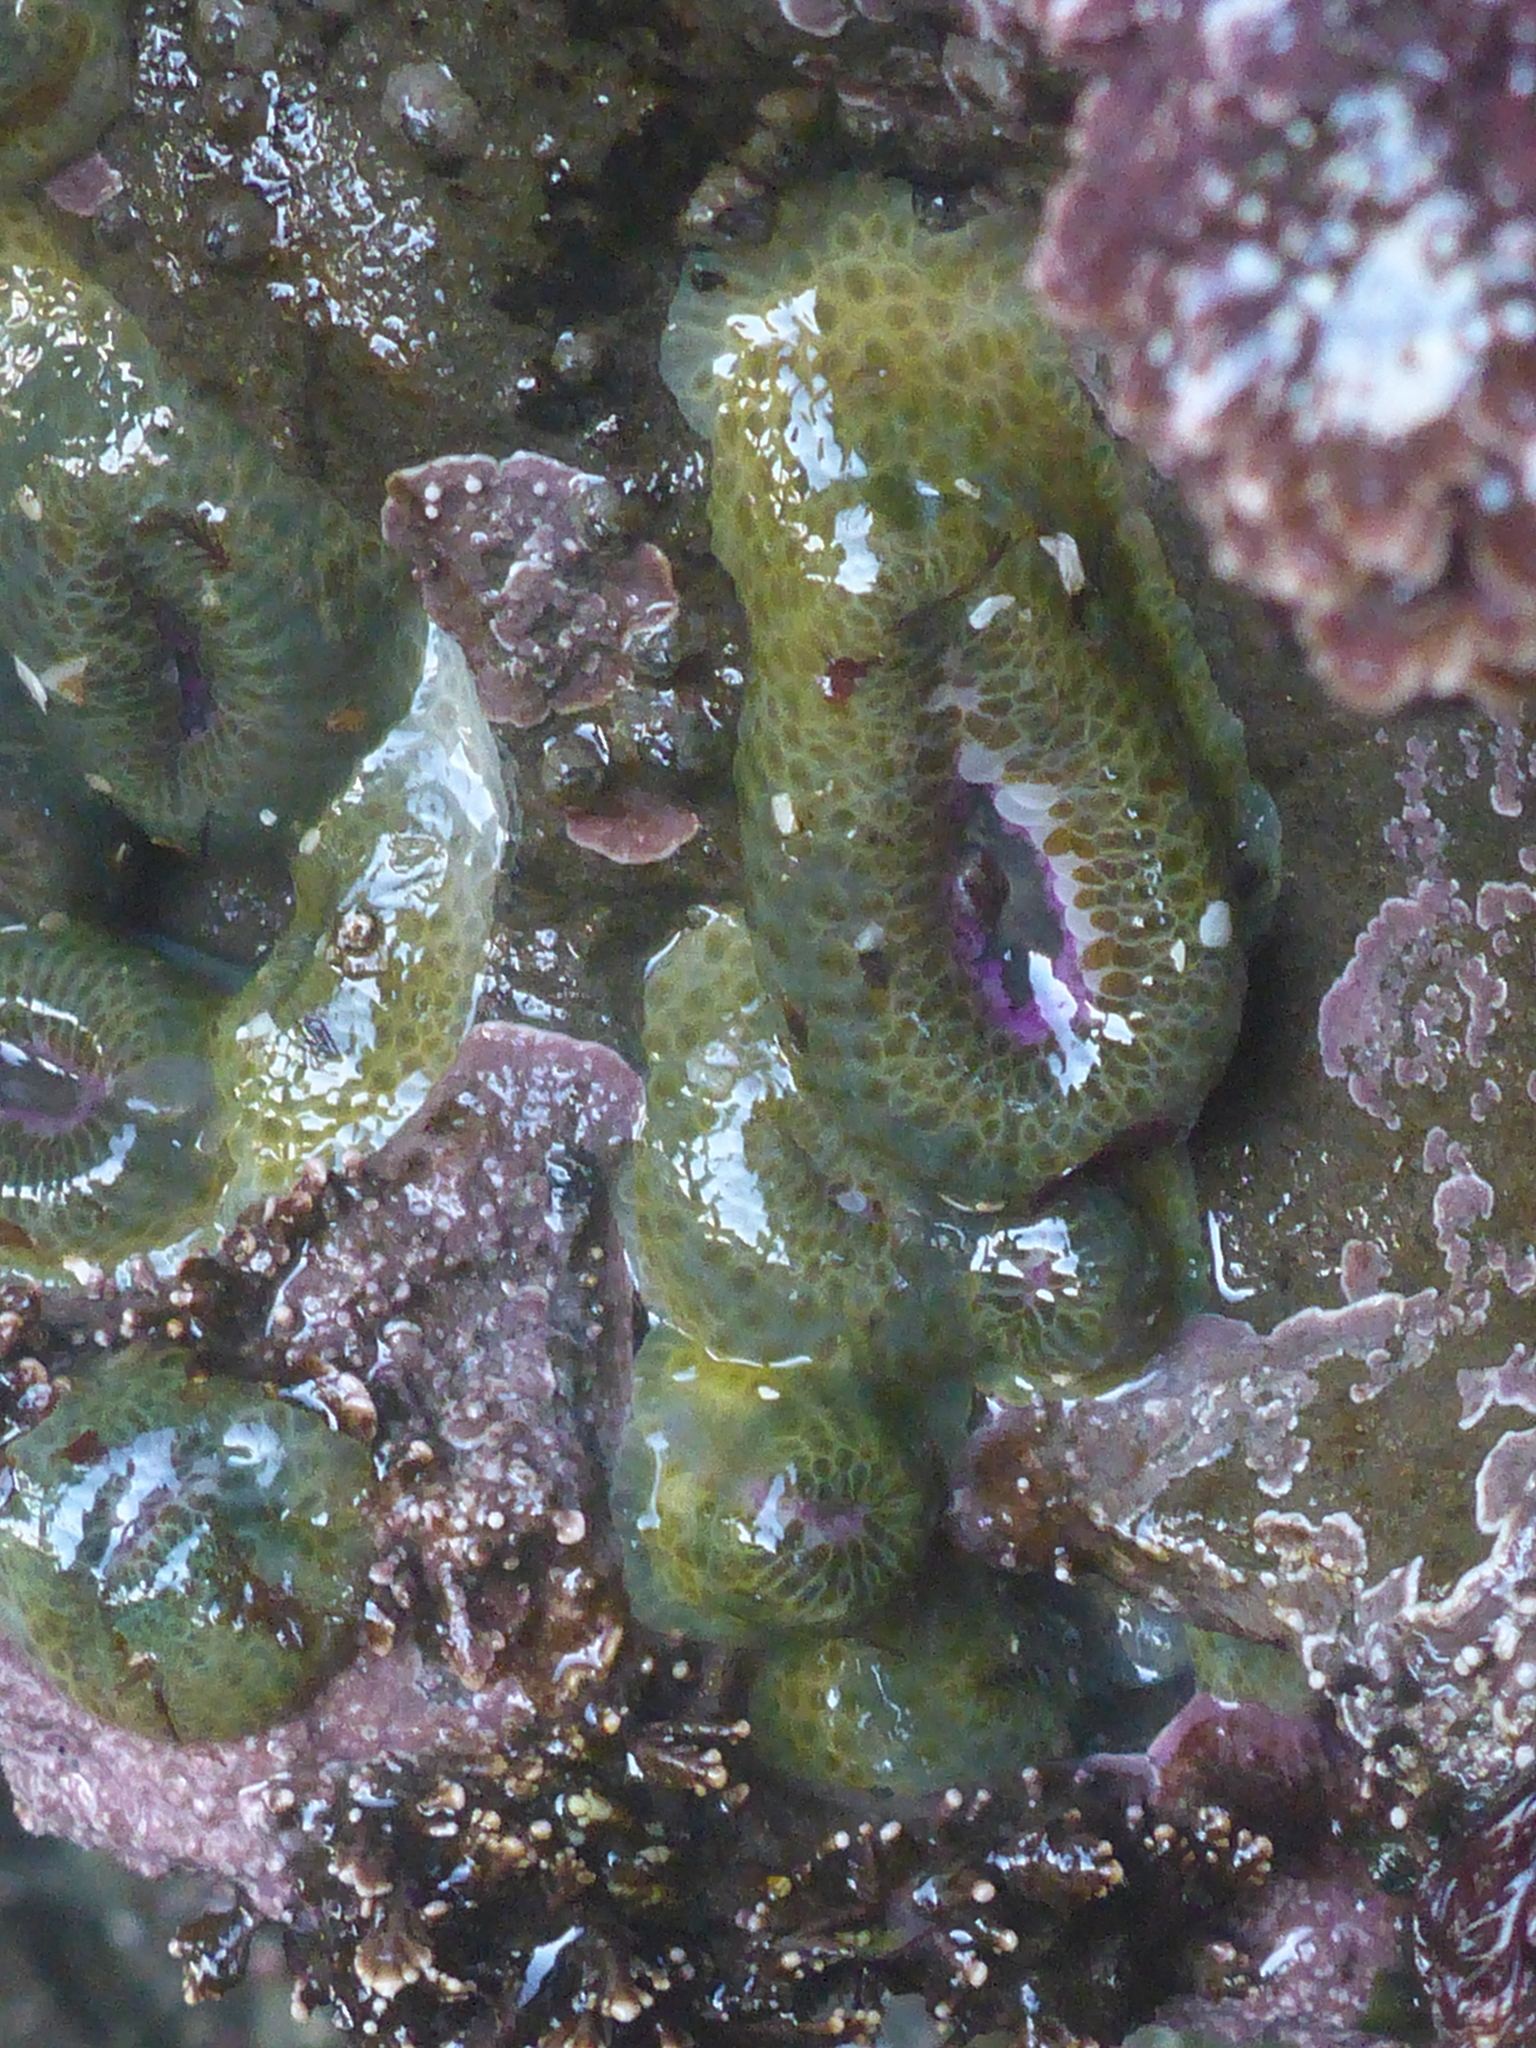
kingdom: Animalia
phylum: Cnidaria
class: Anthozoa
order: Actiniaria
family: Actiniidae
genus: Anthopleura
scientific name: Anthopleura elegantissima
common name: Clonal anemone
